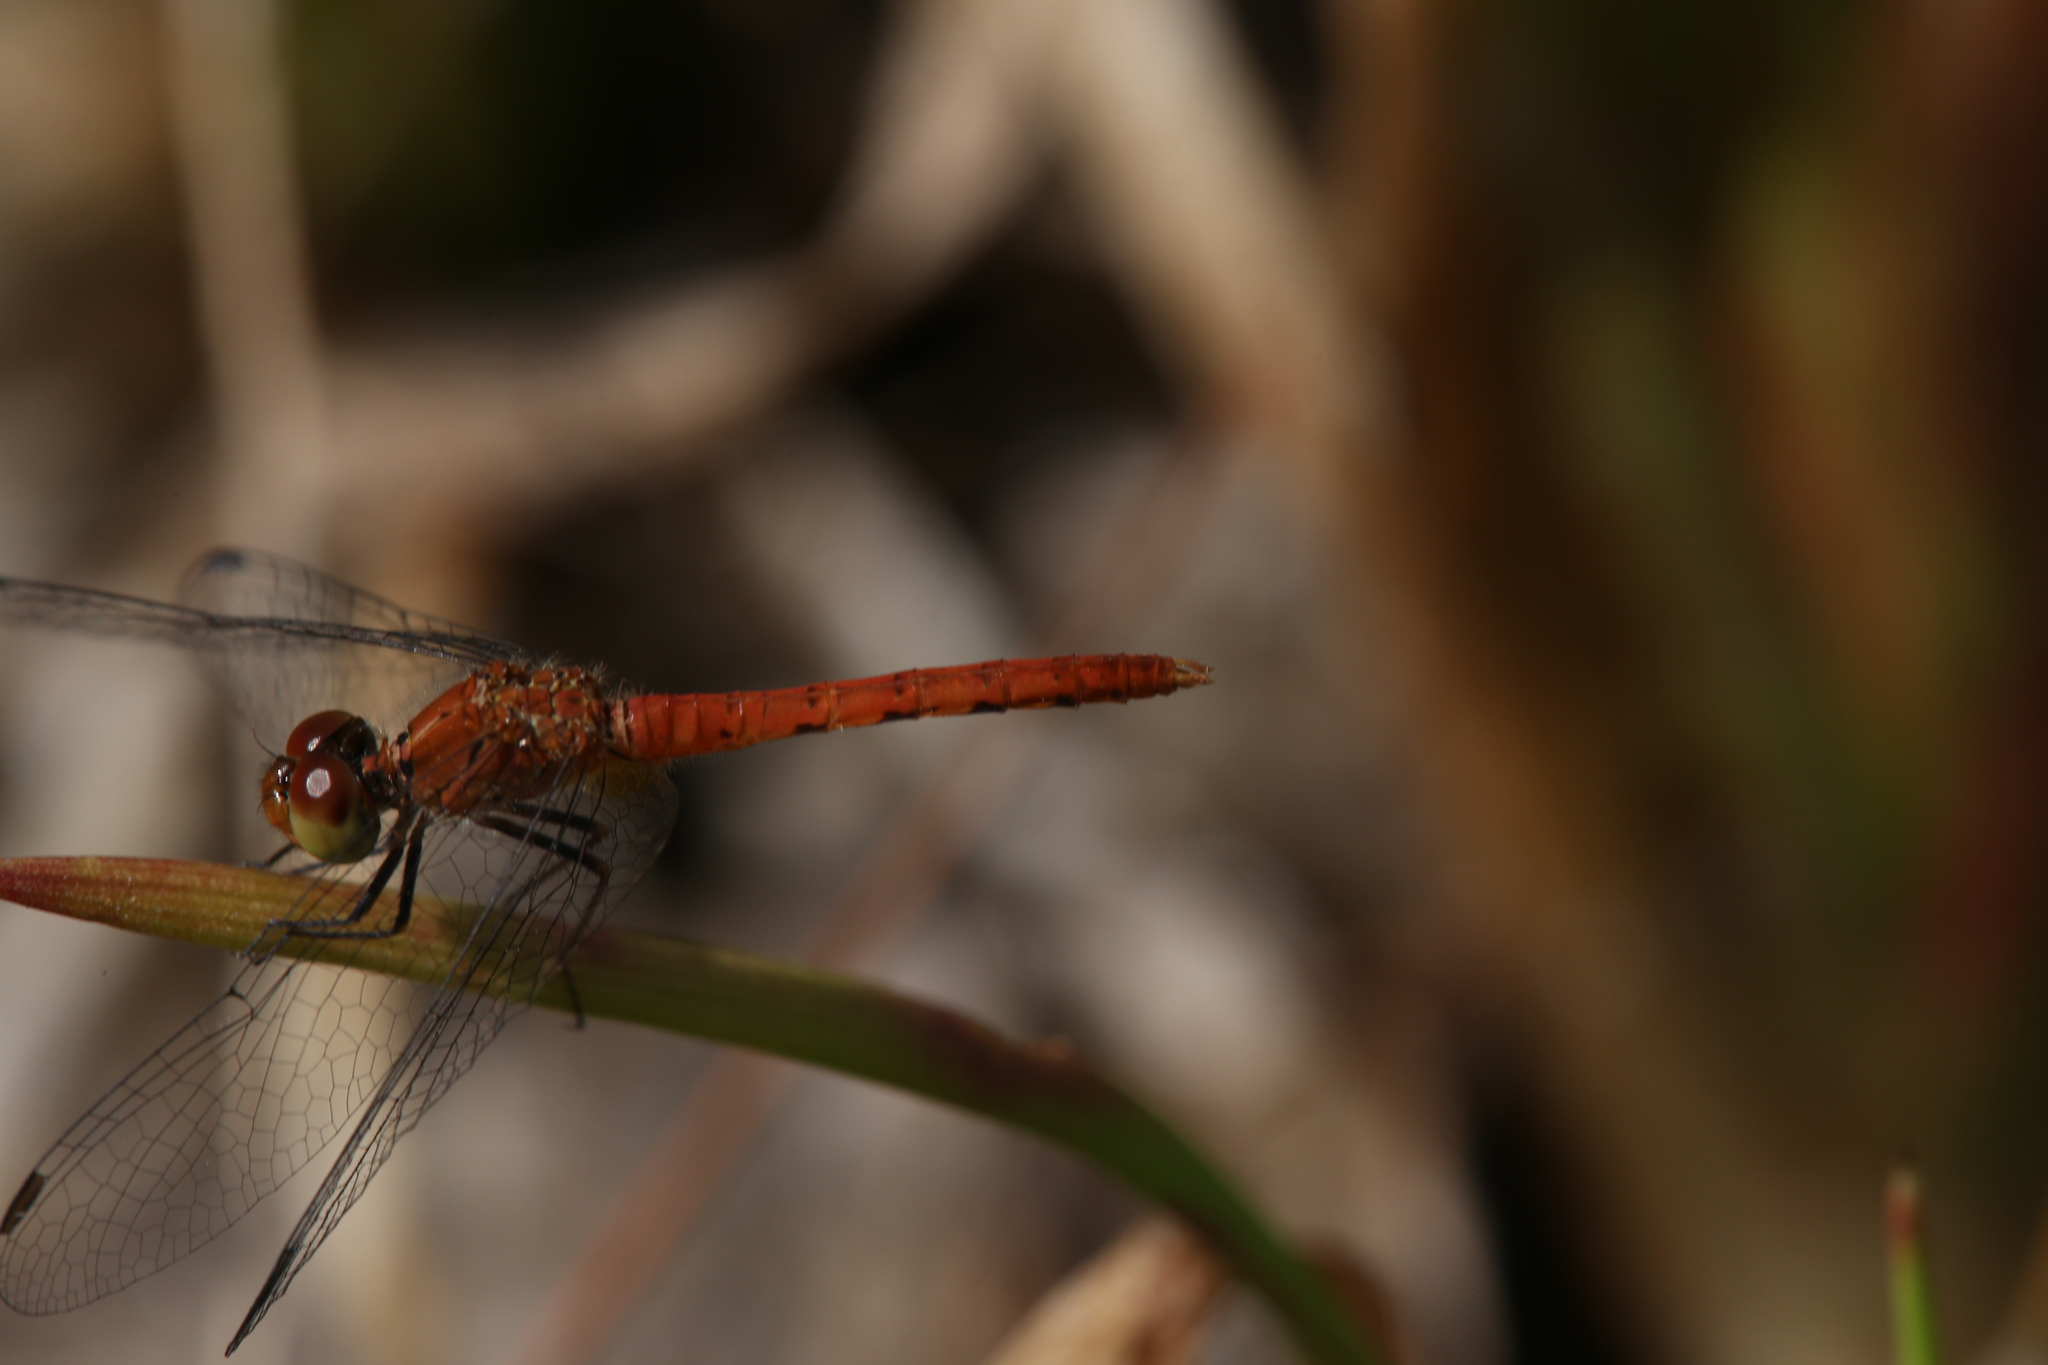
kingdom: Animalia
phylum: Arthropoda
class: Insecta
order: Odonata
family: Libellulidae
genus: Nannodiplax
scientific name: Nannodiplax rubra
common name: Pygmy percher
